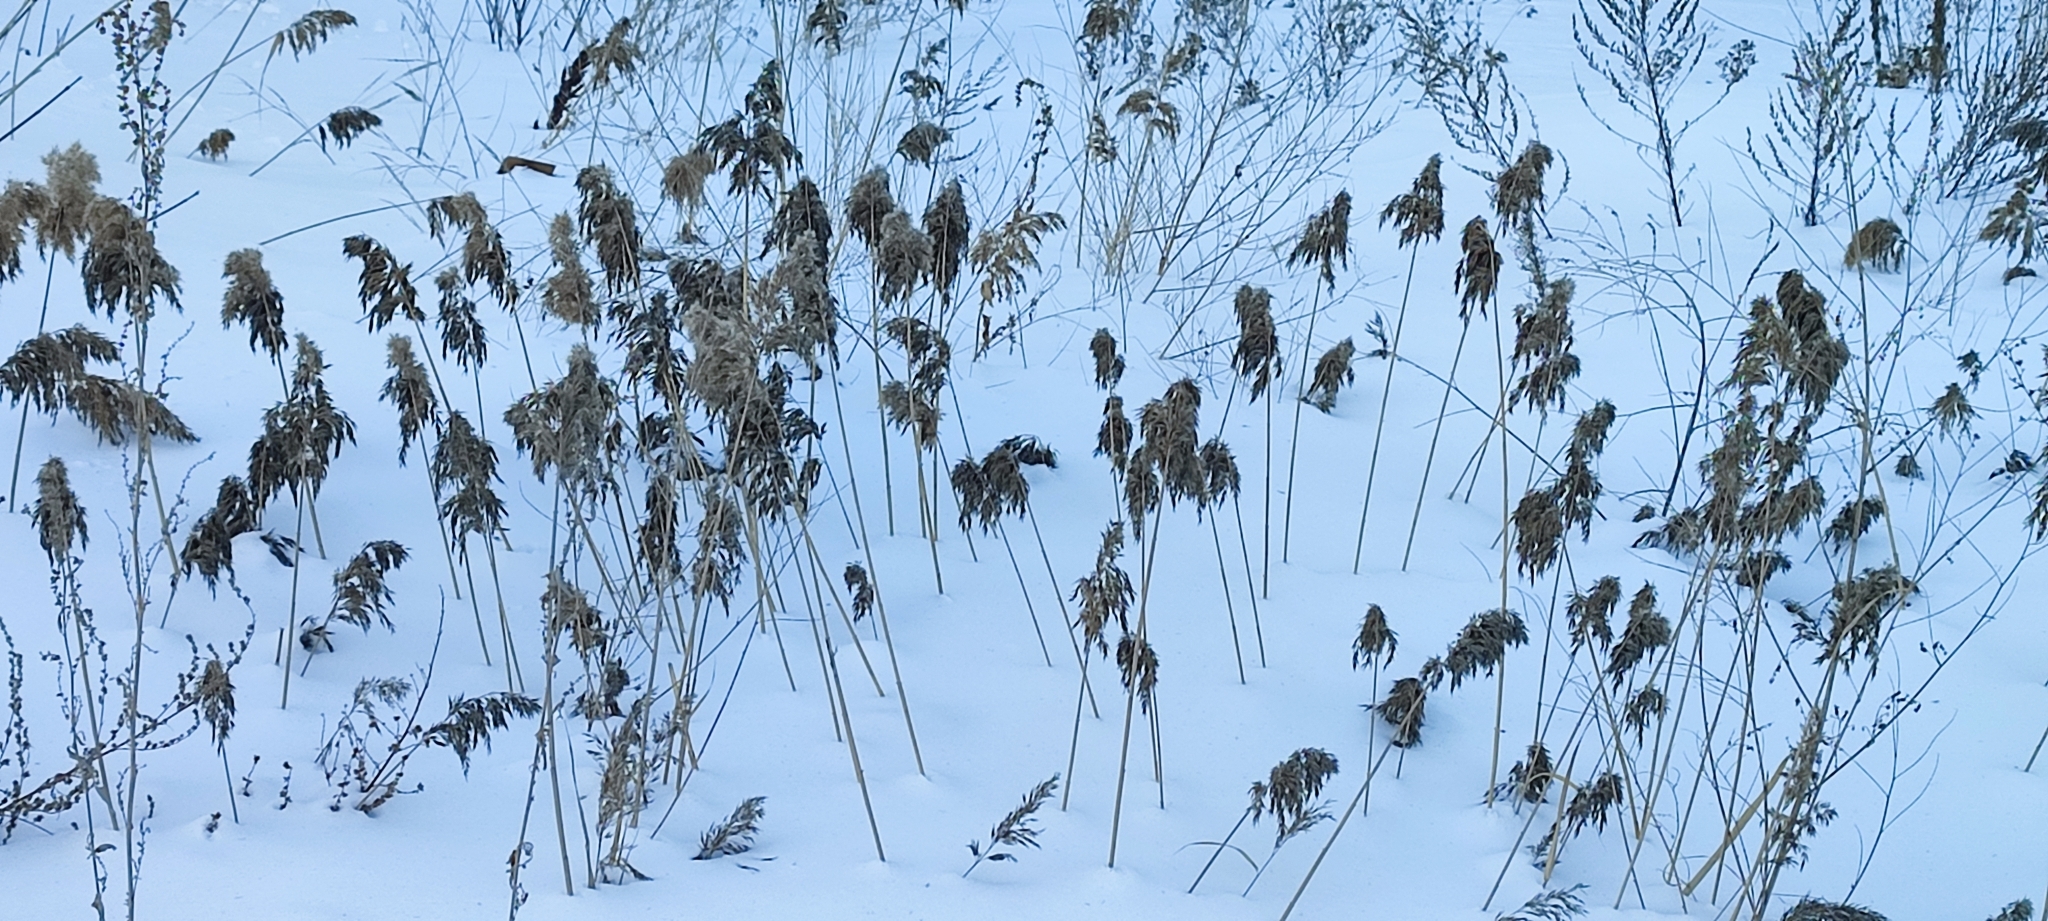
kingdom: Plantae
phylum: Tracheophyta
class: Liliopsida
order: Poales
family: Poaceae
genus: Phragmites
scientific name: Phragmites australis
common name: Common reed
